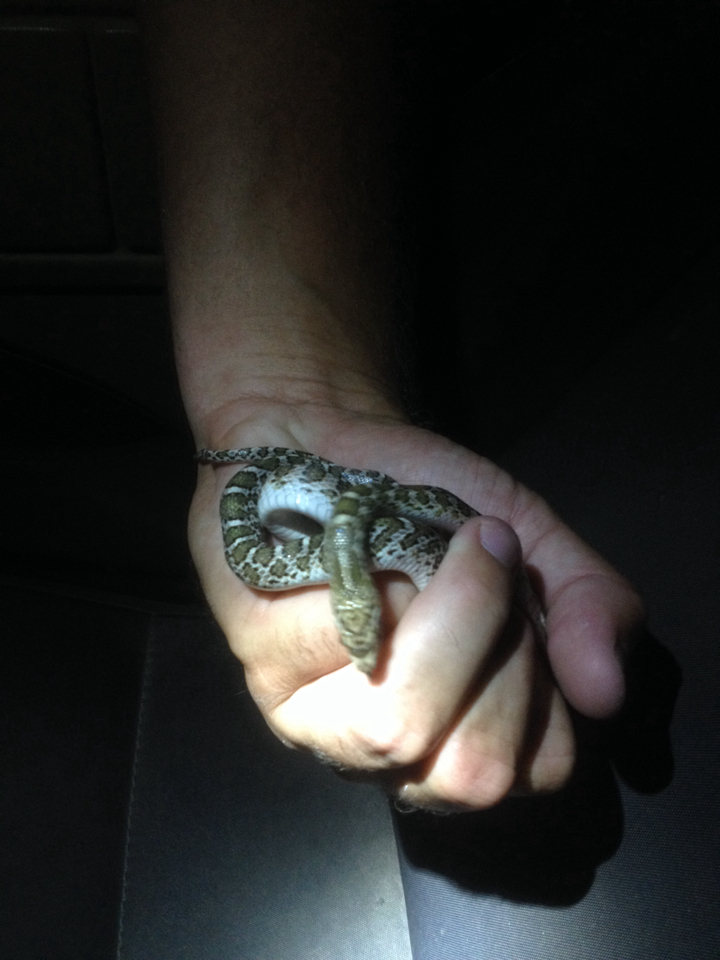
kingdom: Animalia
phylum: Chordata
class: Squamata
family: Colubridae
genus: Arizona
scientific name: Arizona elegans
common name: Glossy snake
